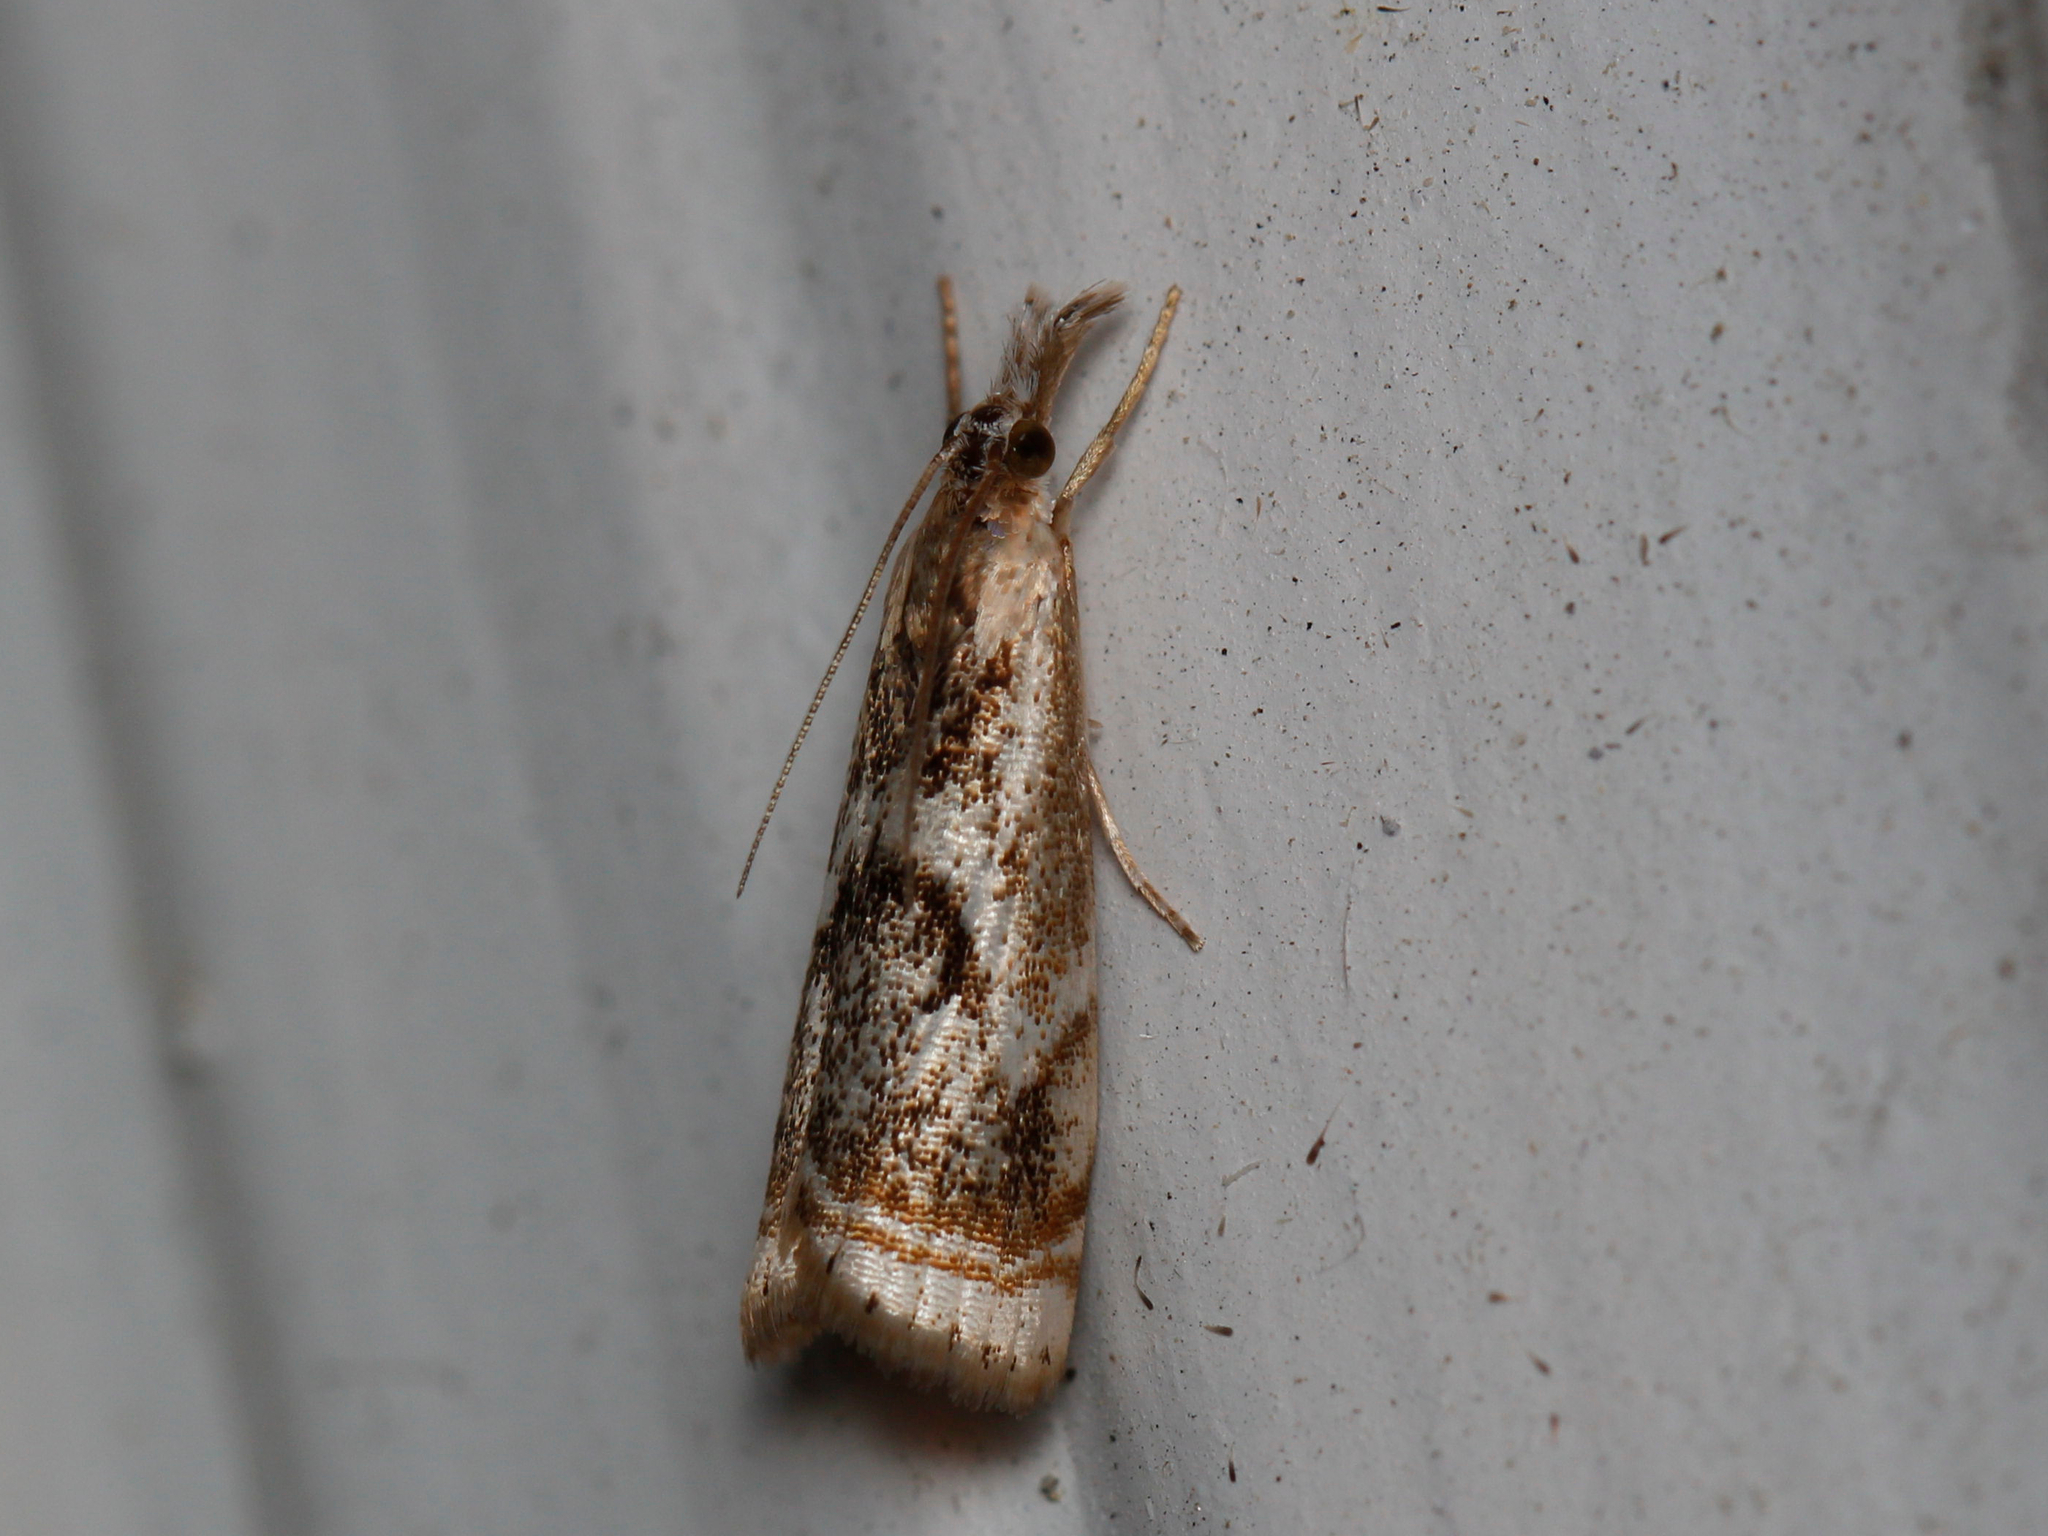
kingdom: Animalia
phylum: Arthropoda
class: Insecta
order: Lepidoptera
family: Crambidae
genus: Microcrambus
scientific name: Microcrambus elegans
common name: Elegant grass-veneer
